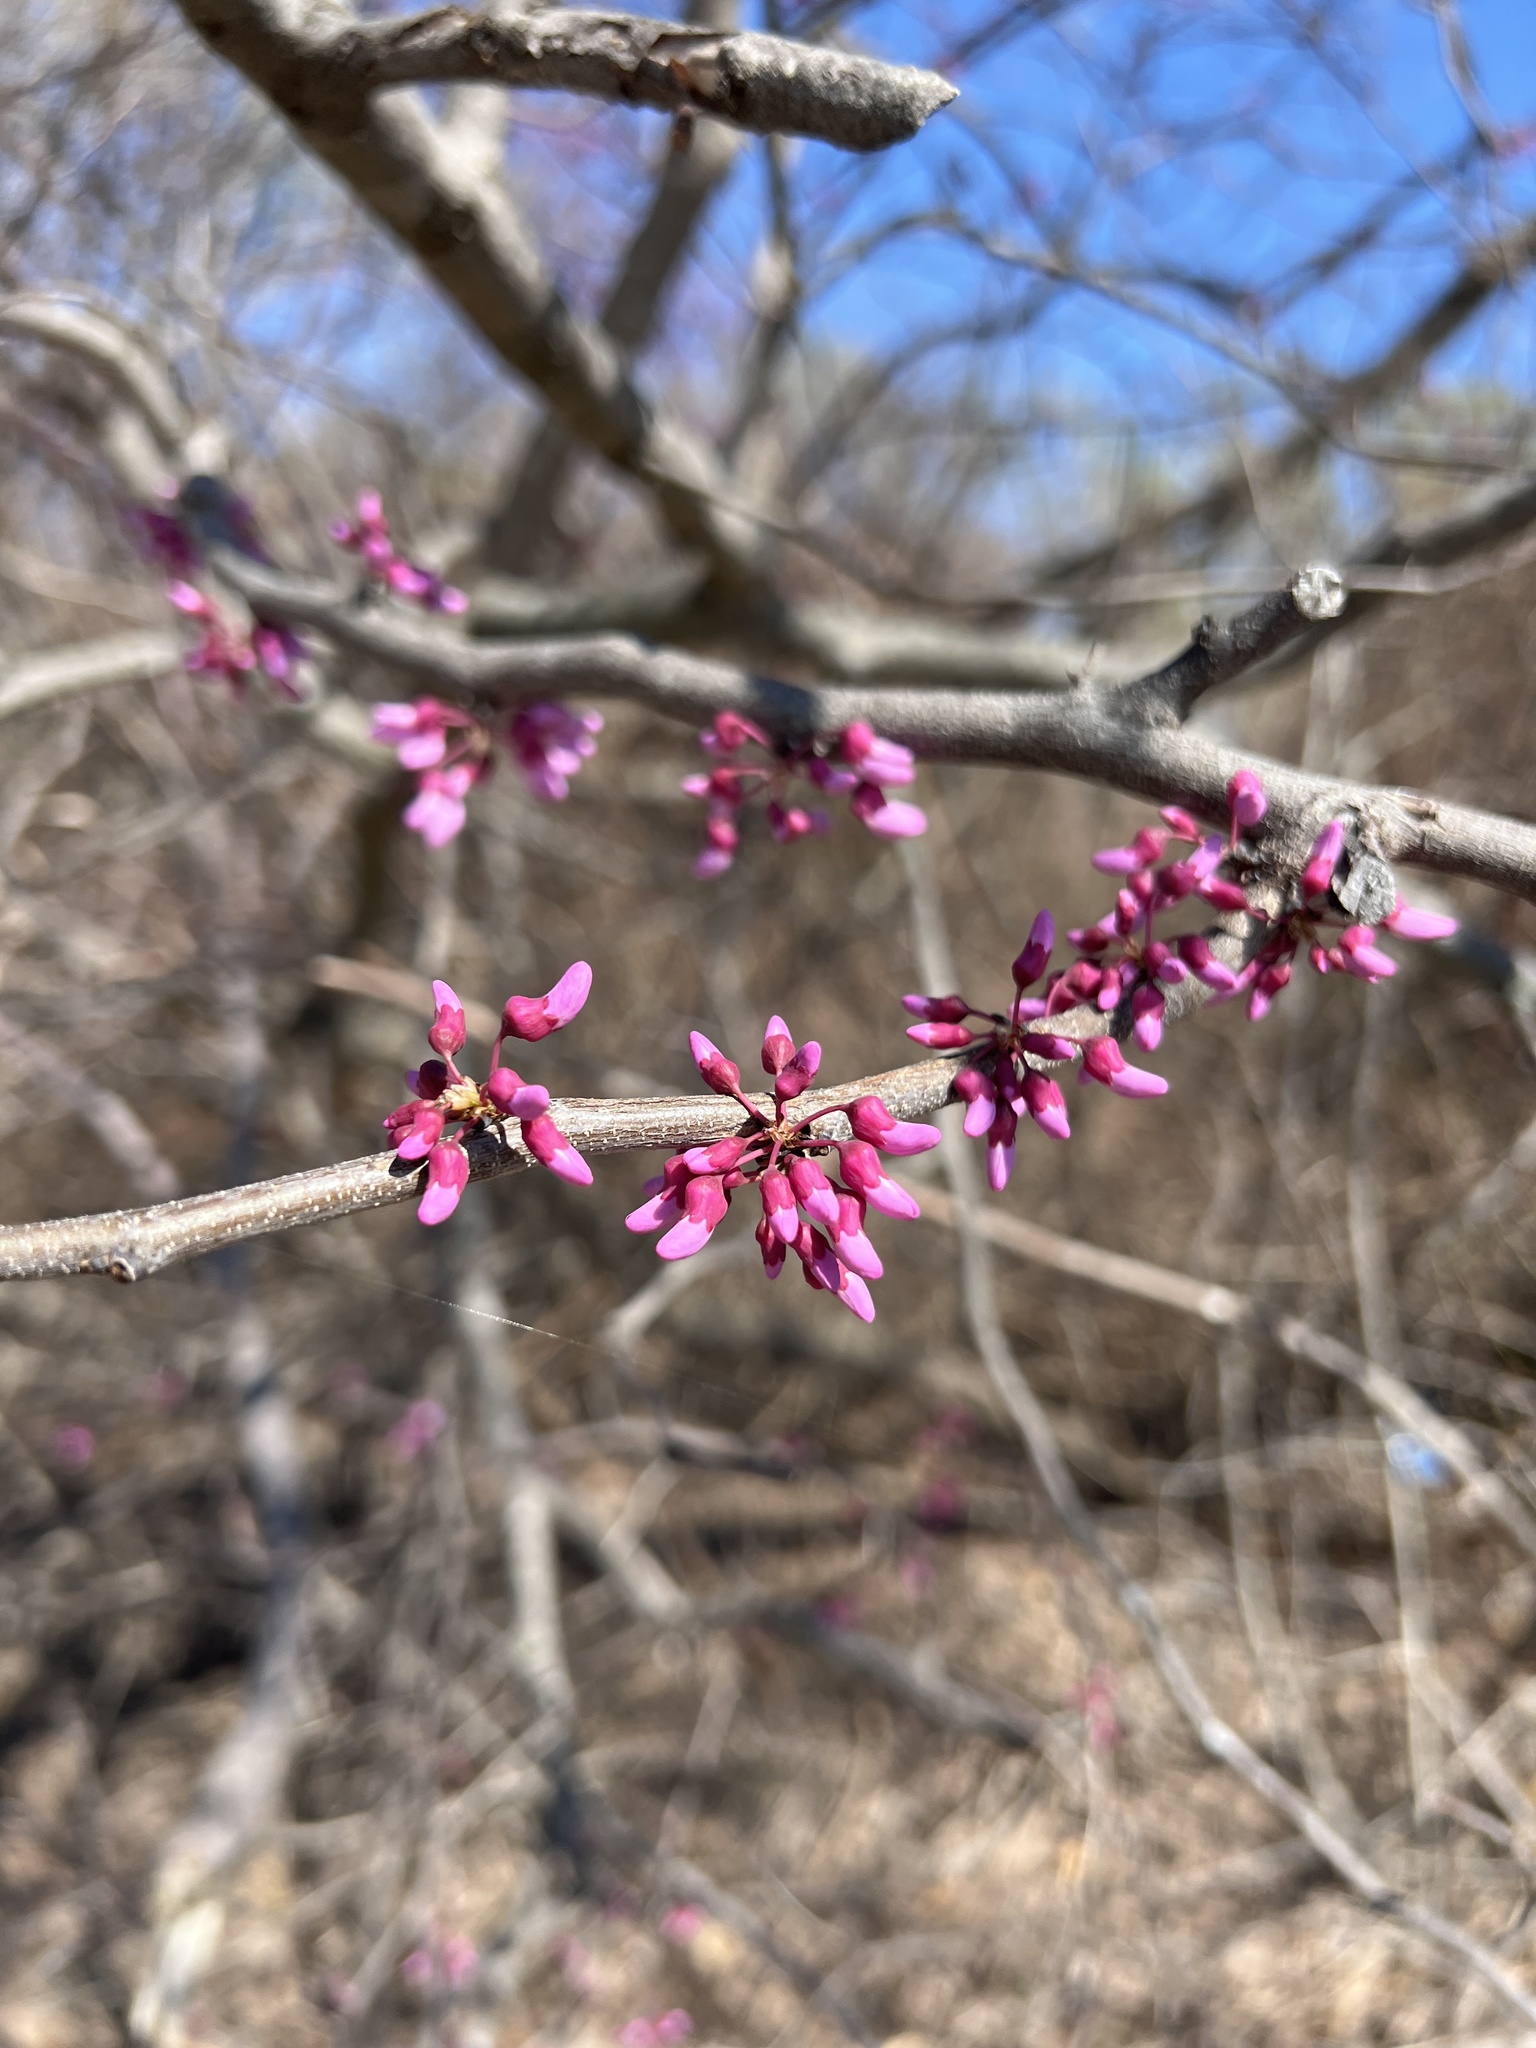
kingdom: Plantae
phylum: Tracheophyta
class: Magnoliopsida
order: Fabales
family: Fabaceae
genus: Cercis
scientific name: Cercis canadensis
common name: Eastern redbud
